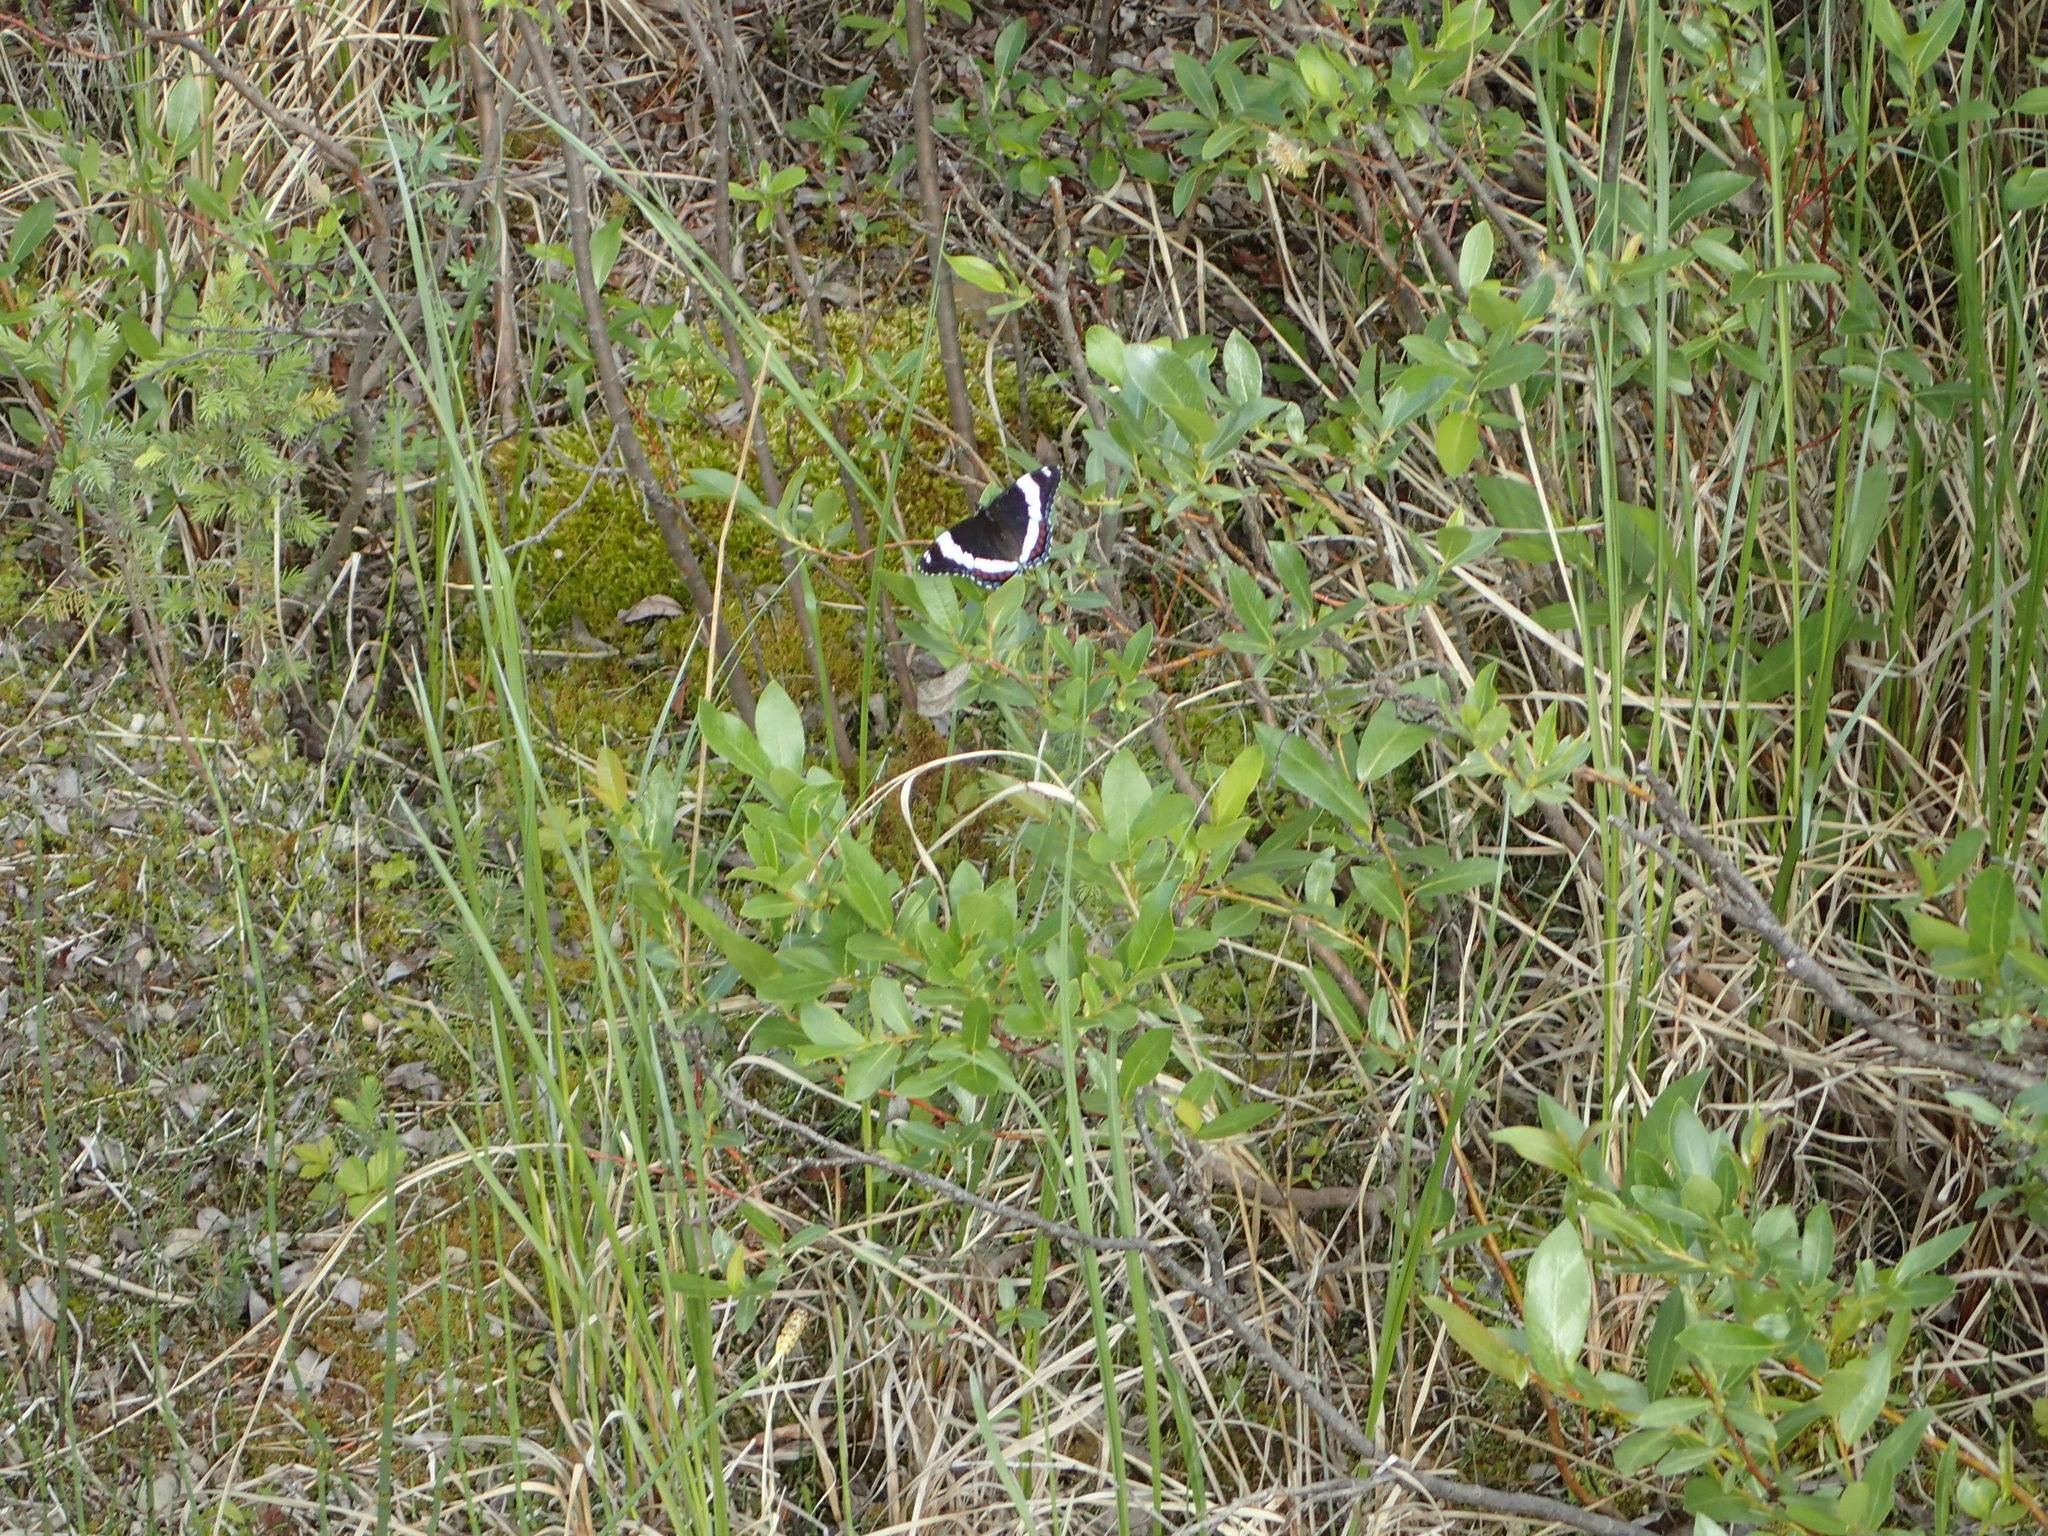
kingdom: Animalia
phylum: Arthropoda
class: Insecta
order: Lepidoptera
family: Nymphalidae
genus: Limenitis
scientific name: Limenitis arthemis
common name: Red-spotted admiral
